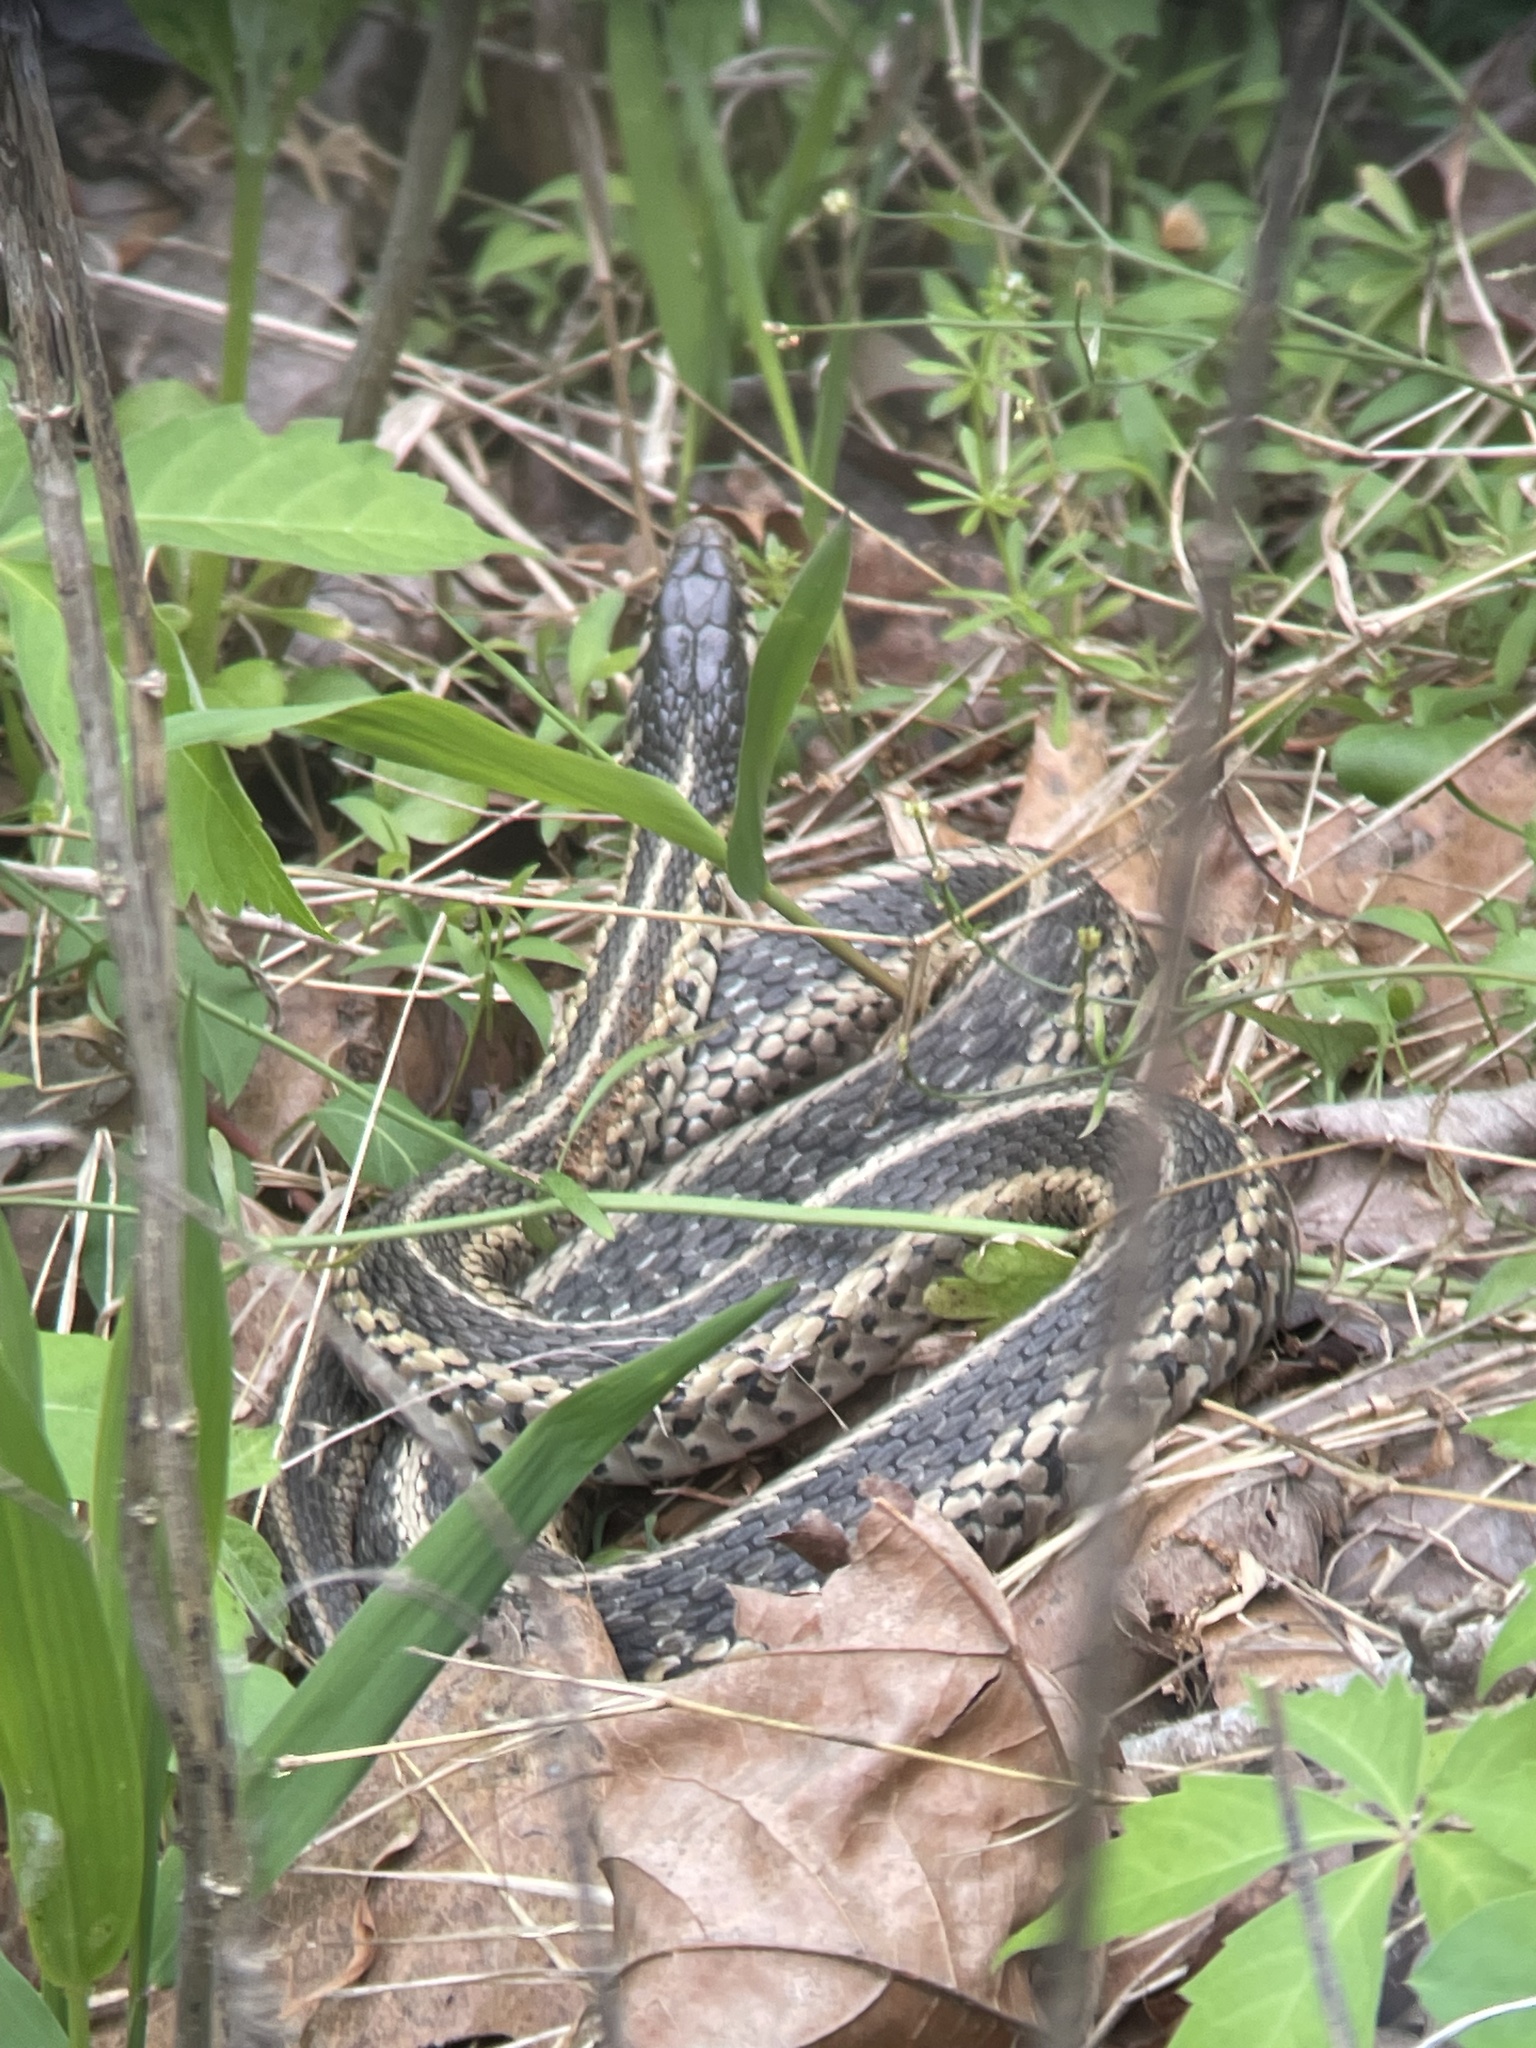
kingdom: Animalia
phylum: Chordata
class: Squamata
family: Colubridae
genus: Thamnophis
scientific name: Thamnophis sirtalis
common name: Common garter snake
